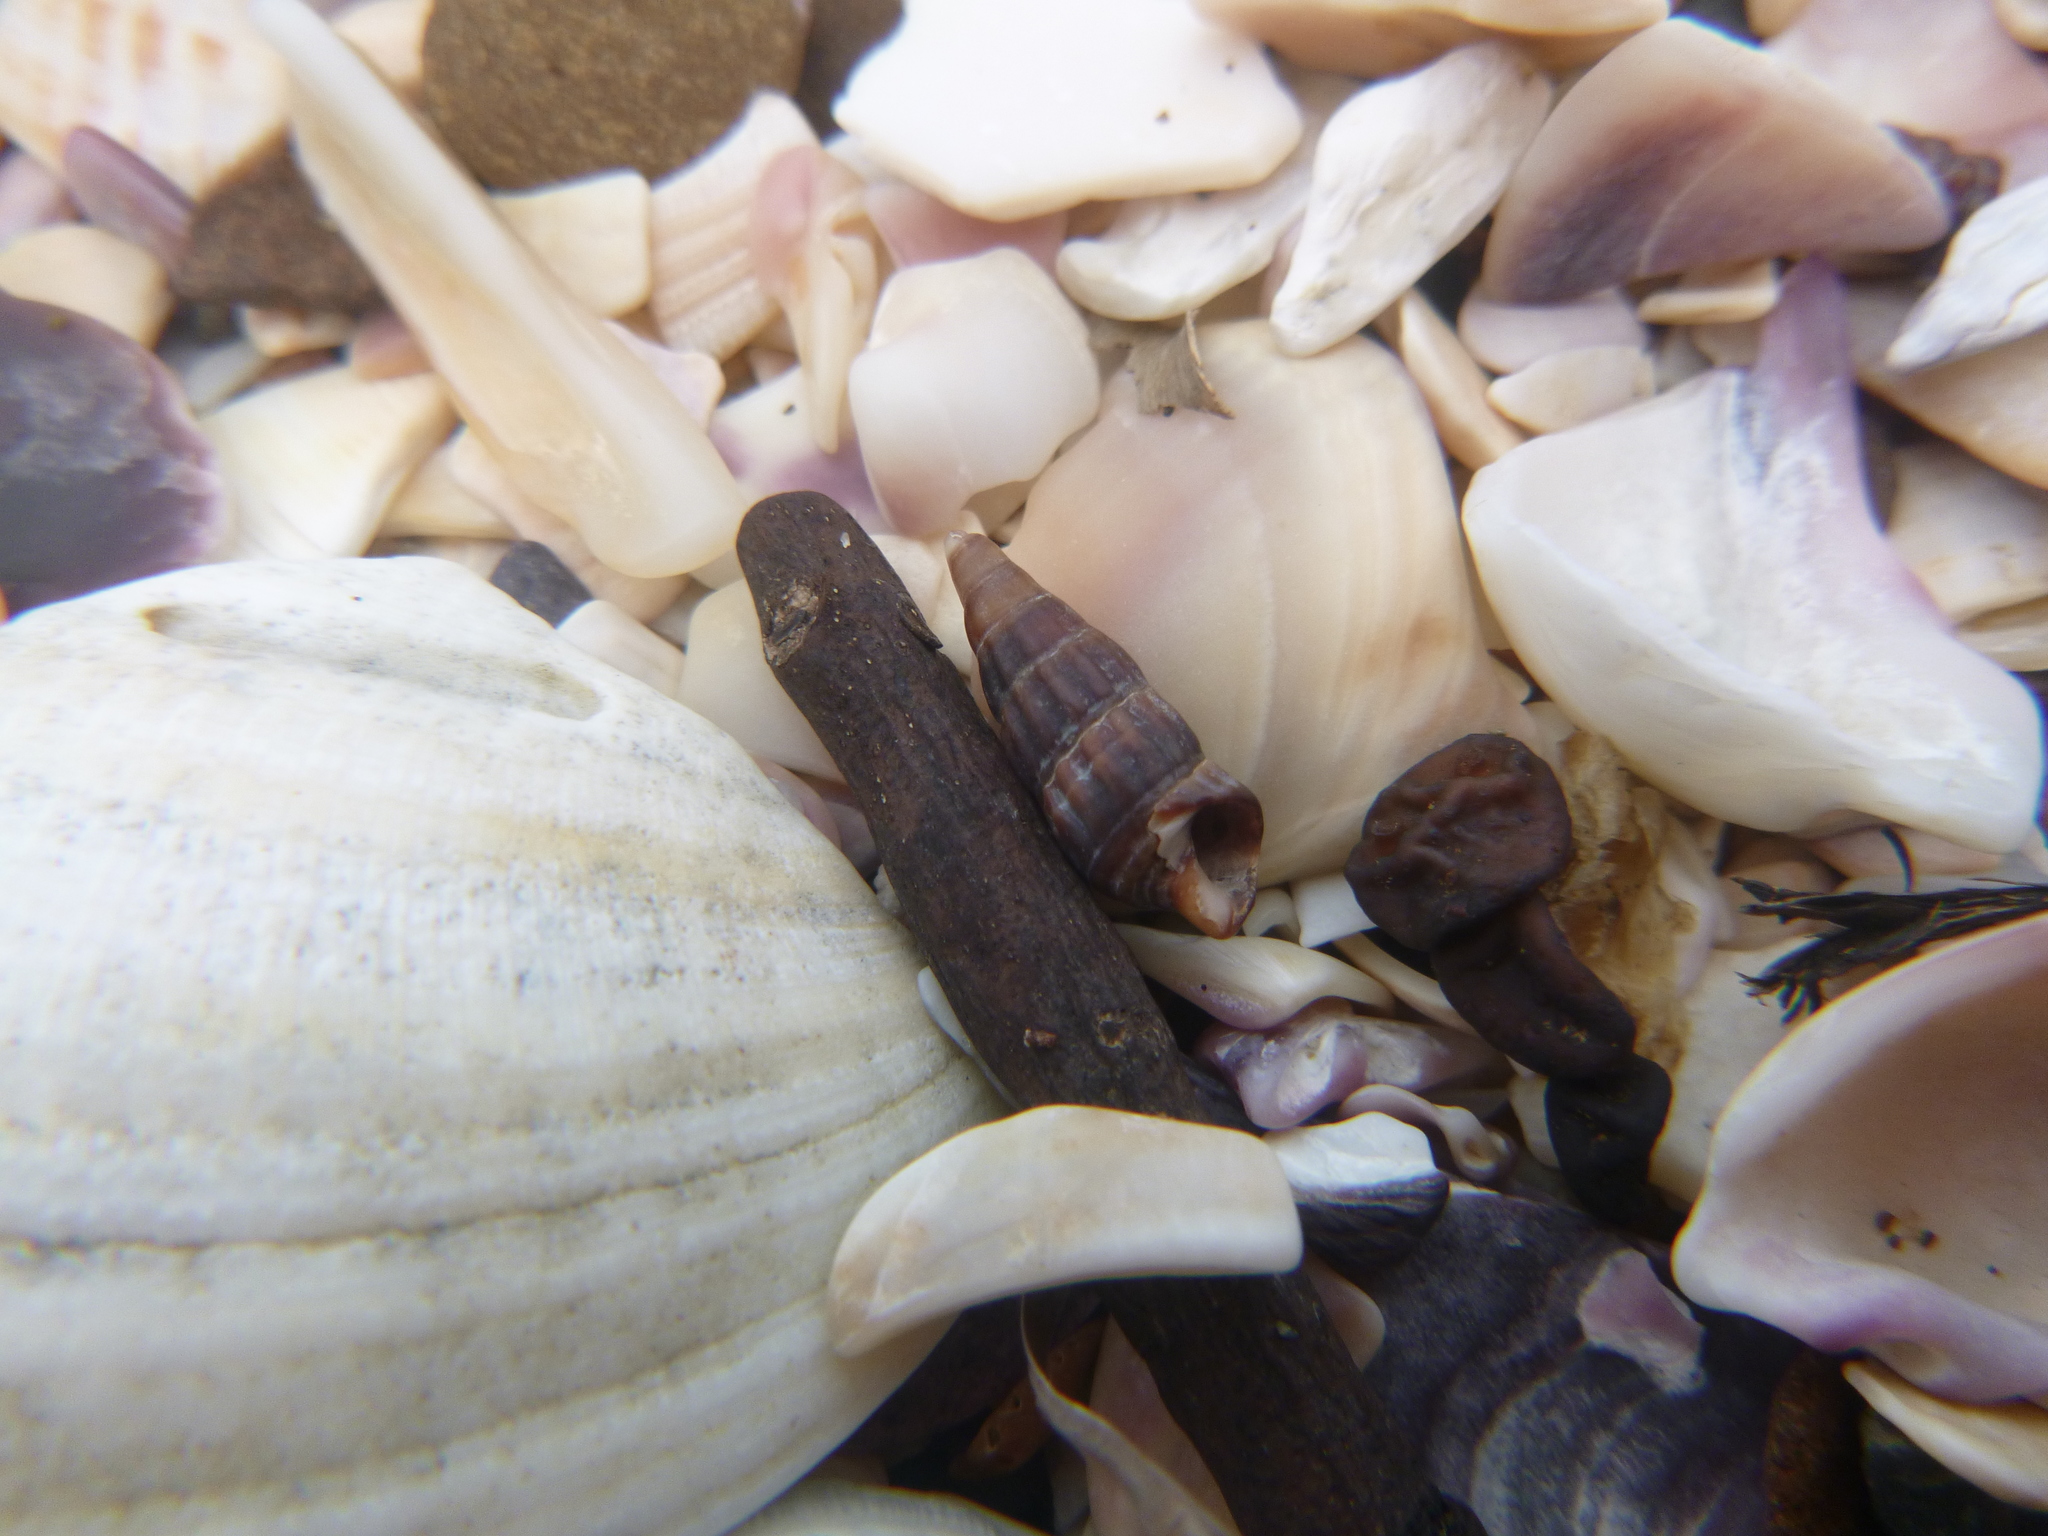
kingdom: Animalia
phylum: Mollusca
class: Gastropoda
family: Batillariidae
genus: Zeacumantus
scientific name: Zeacumantus subcarinatus
